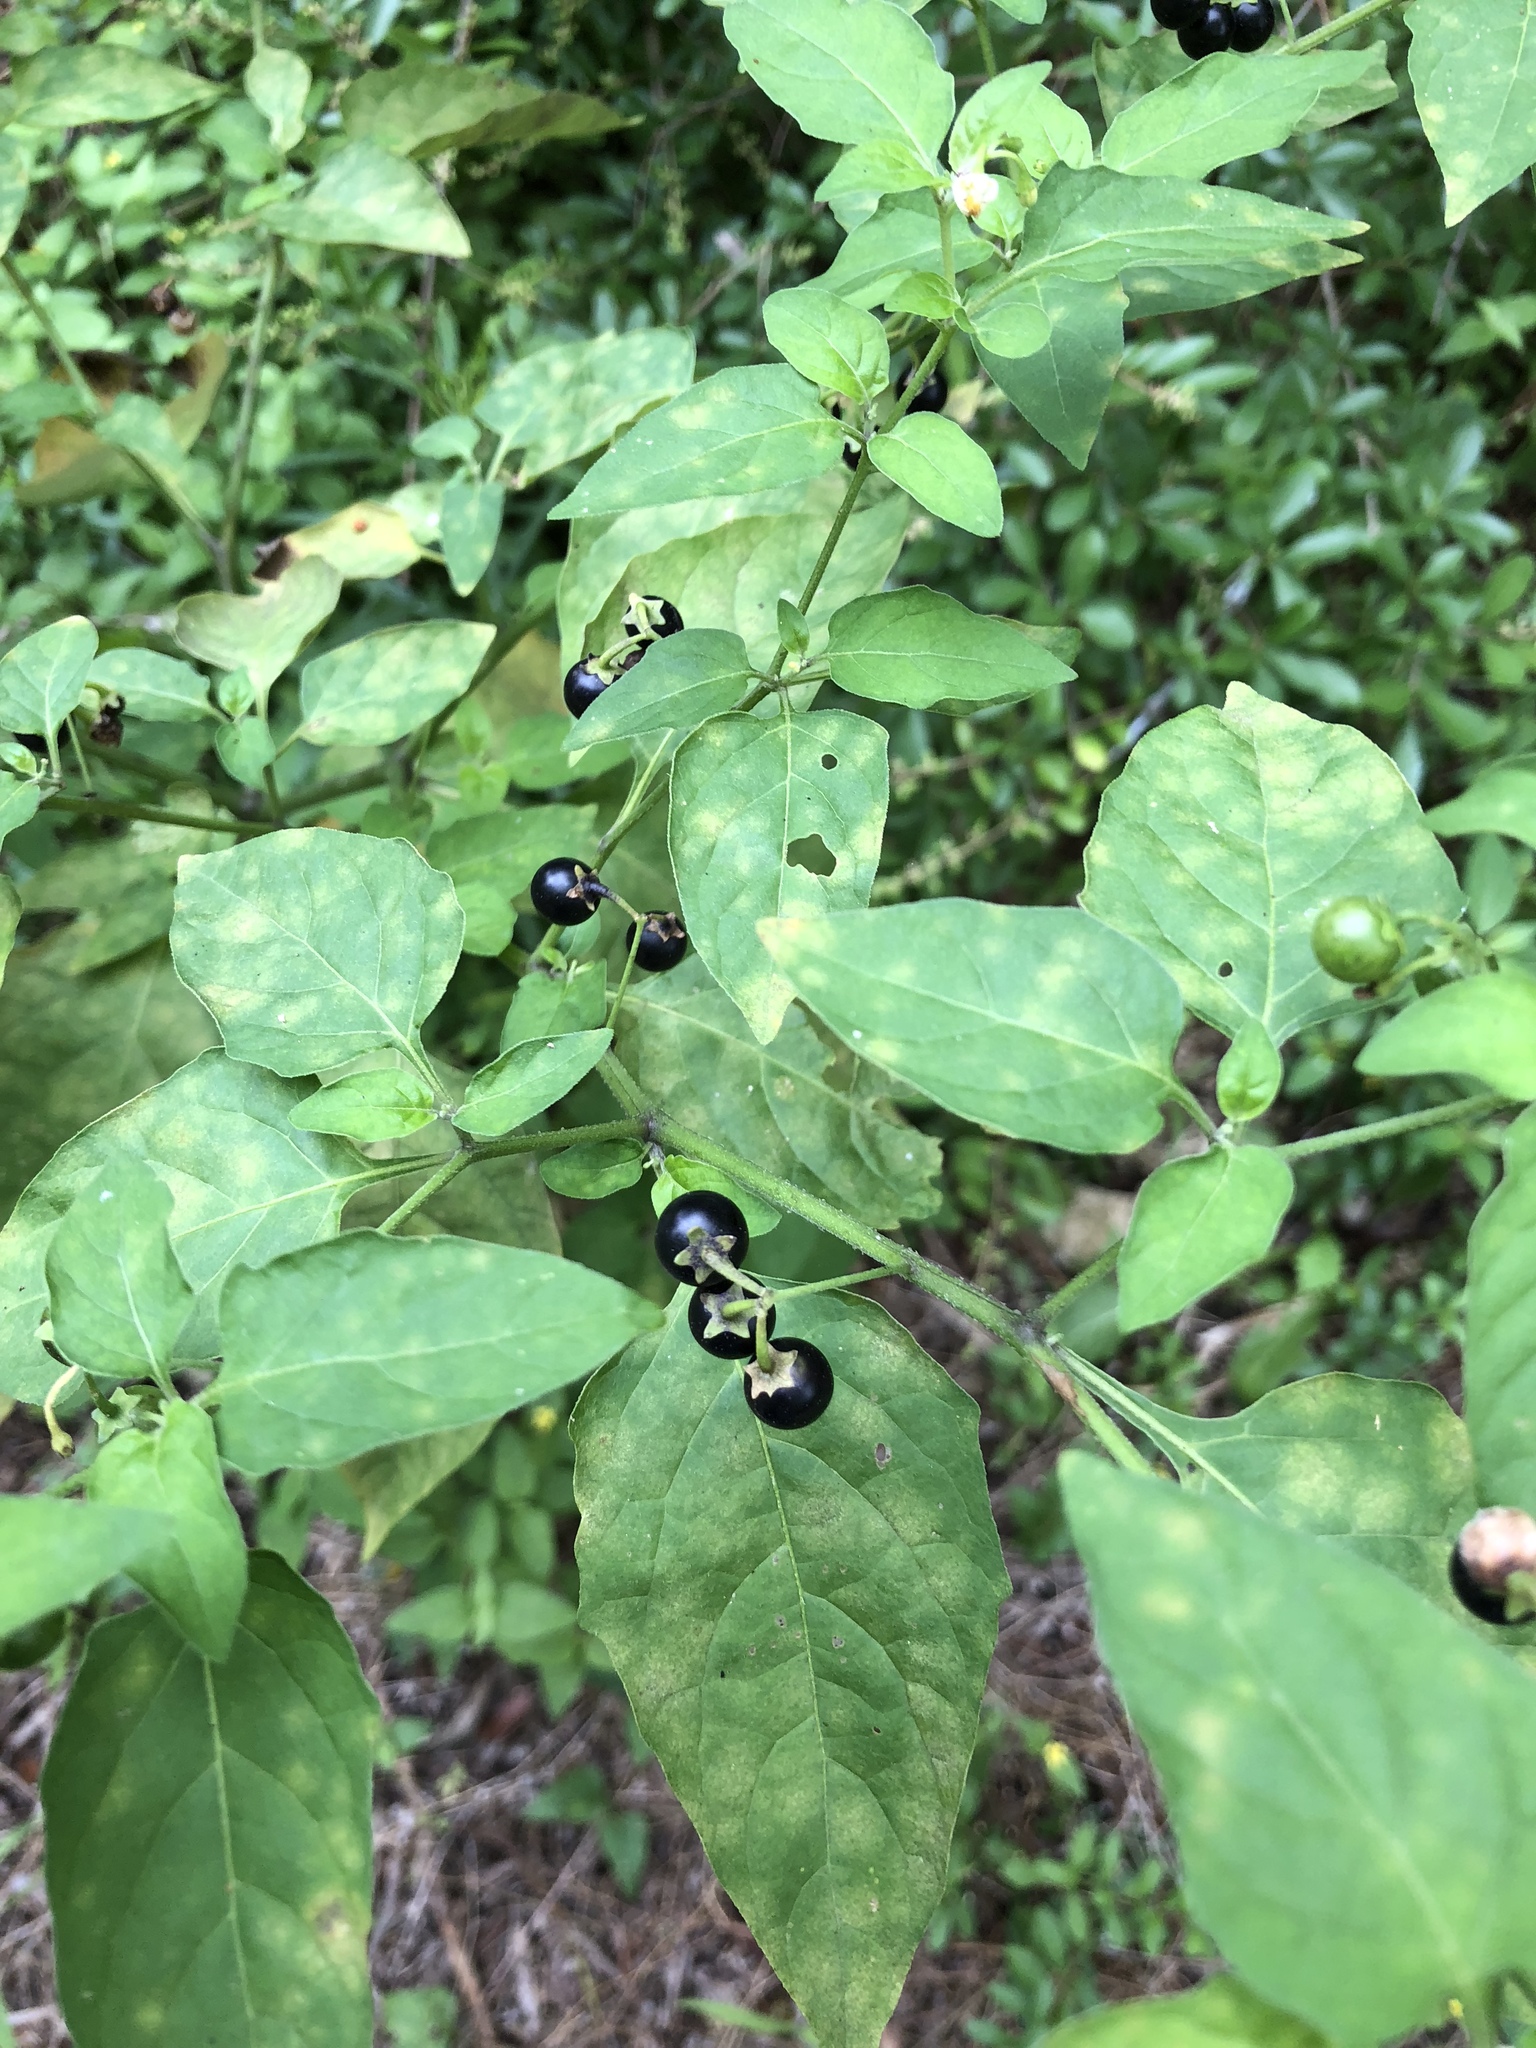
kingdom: Plantae
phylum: Tracheophyta
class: Magnoliopsida
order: Solanales
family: Solanaceae
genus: Solanum
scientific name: Solanum emulans
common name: Eastern black nightshade
